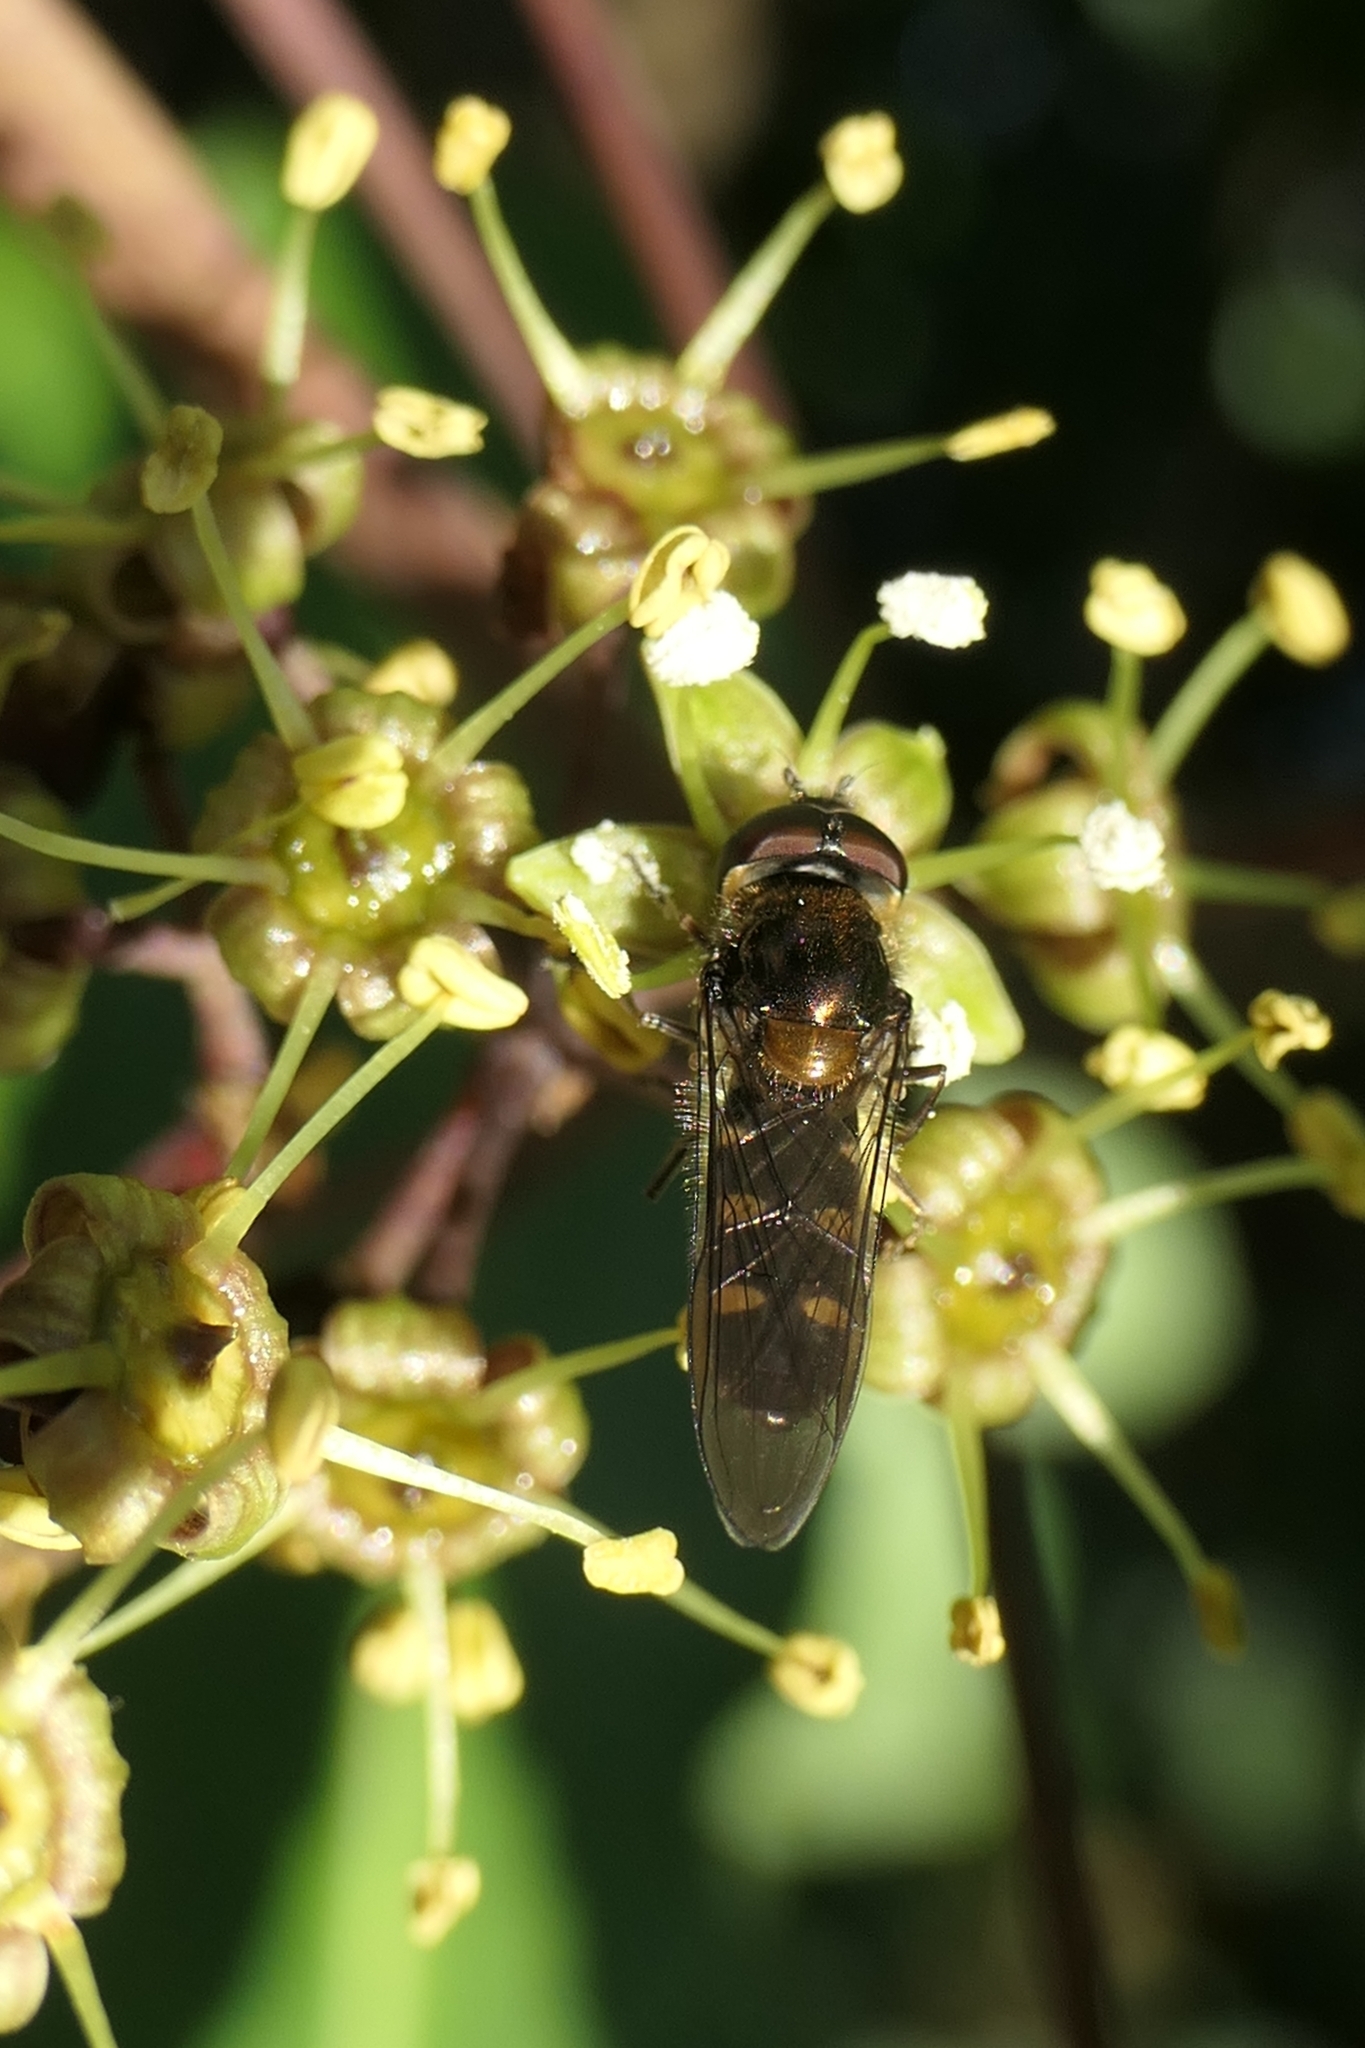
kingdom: Animalia
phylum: Arthropoda
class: Insecta
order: Diptera
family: Syrphidae
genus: Melangyna
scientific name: Melangyna novaezelandiae
